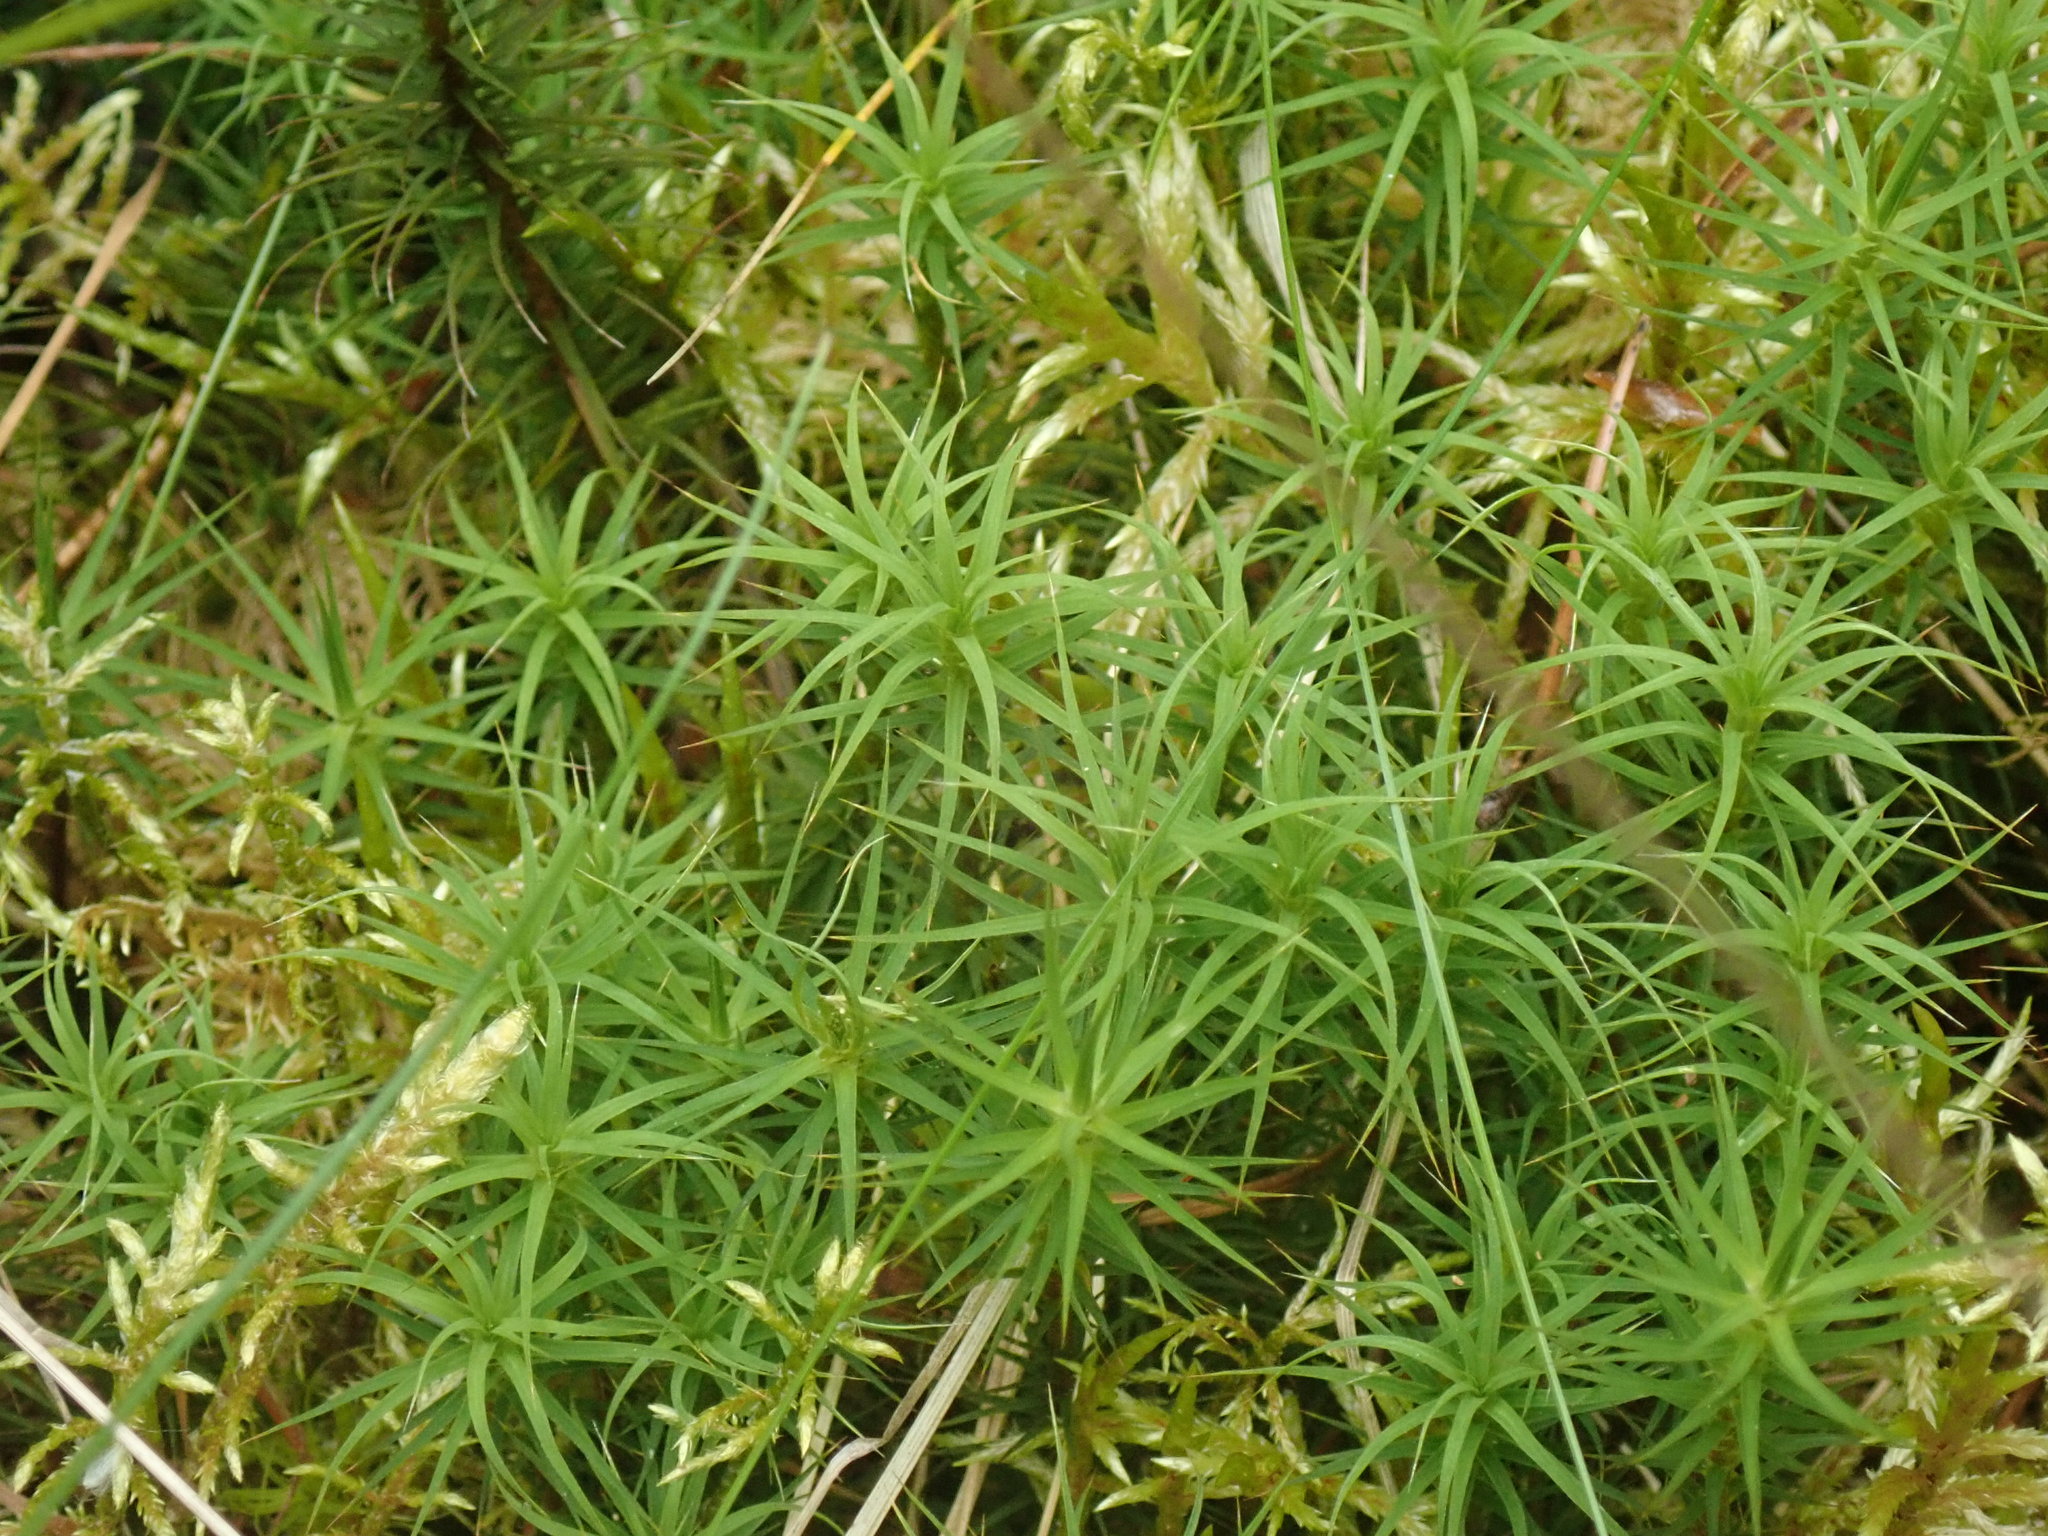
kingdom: Plantae
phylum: Bryophyta
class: Polytrichopsida
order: Polytrichales
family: Polytrichaceae
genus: Polytrichum
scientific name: Polytrichum commune
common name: Common haircap
